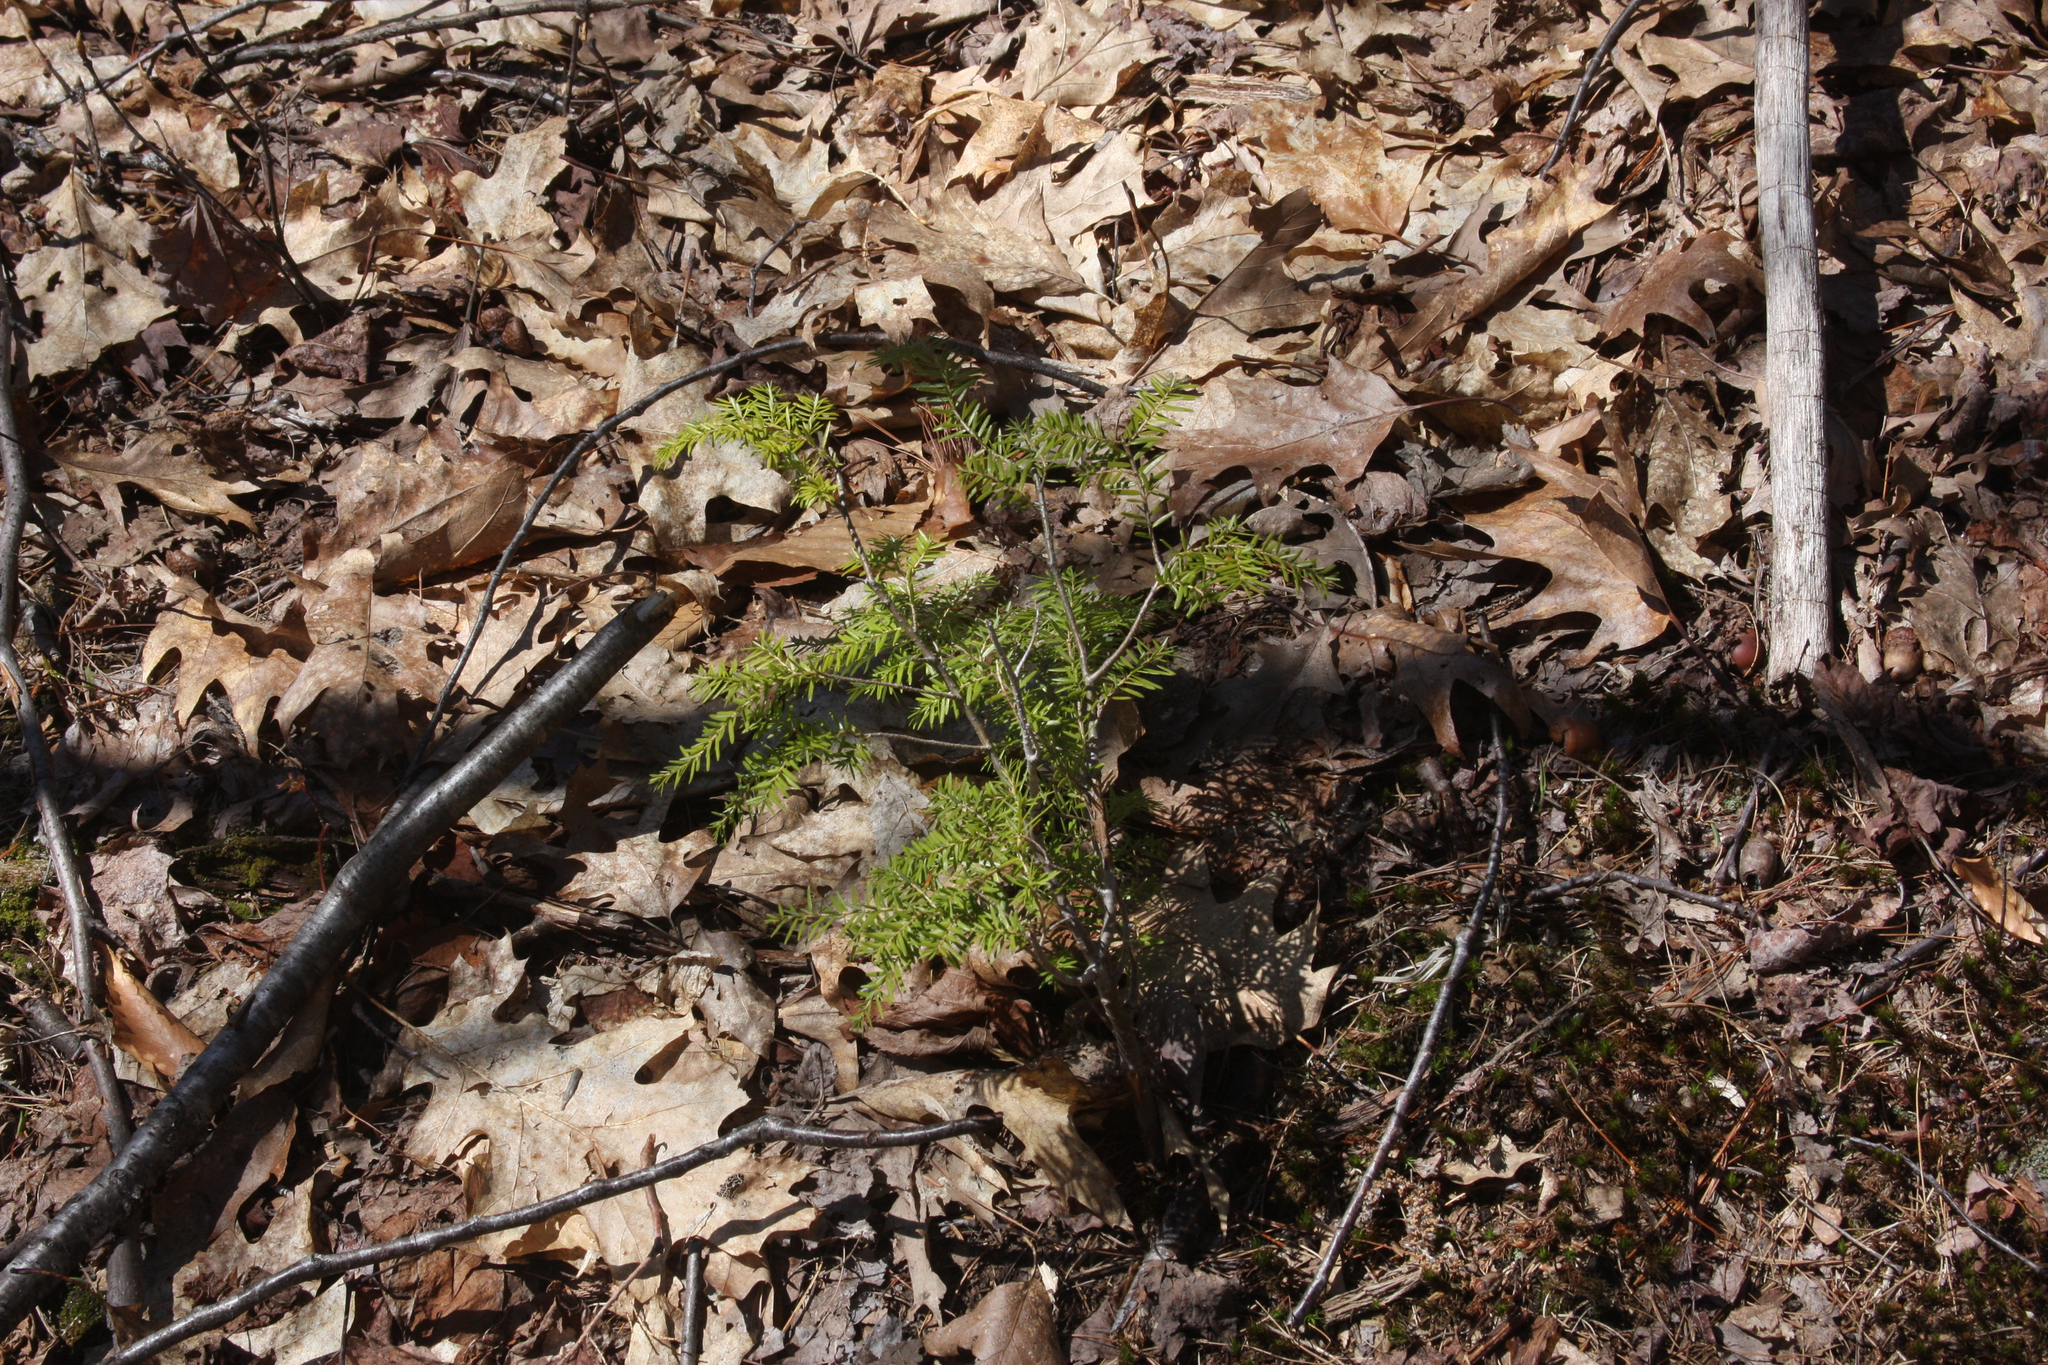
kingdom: Plantae
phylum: Tracheophyta
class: Pinopsida
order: Pinales
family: Pinaceae
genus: Tsuga
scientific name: Tsuga canadensis
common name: Eastern hemlock
